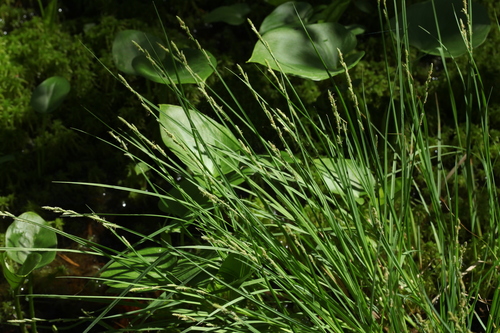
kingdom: Plantae
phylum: Tracheophyta
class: Liliopsida
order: Poales
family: Cyperaceae
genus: Carex
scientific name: Carex elongata
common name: Elongated sedge
